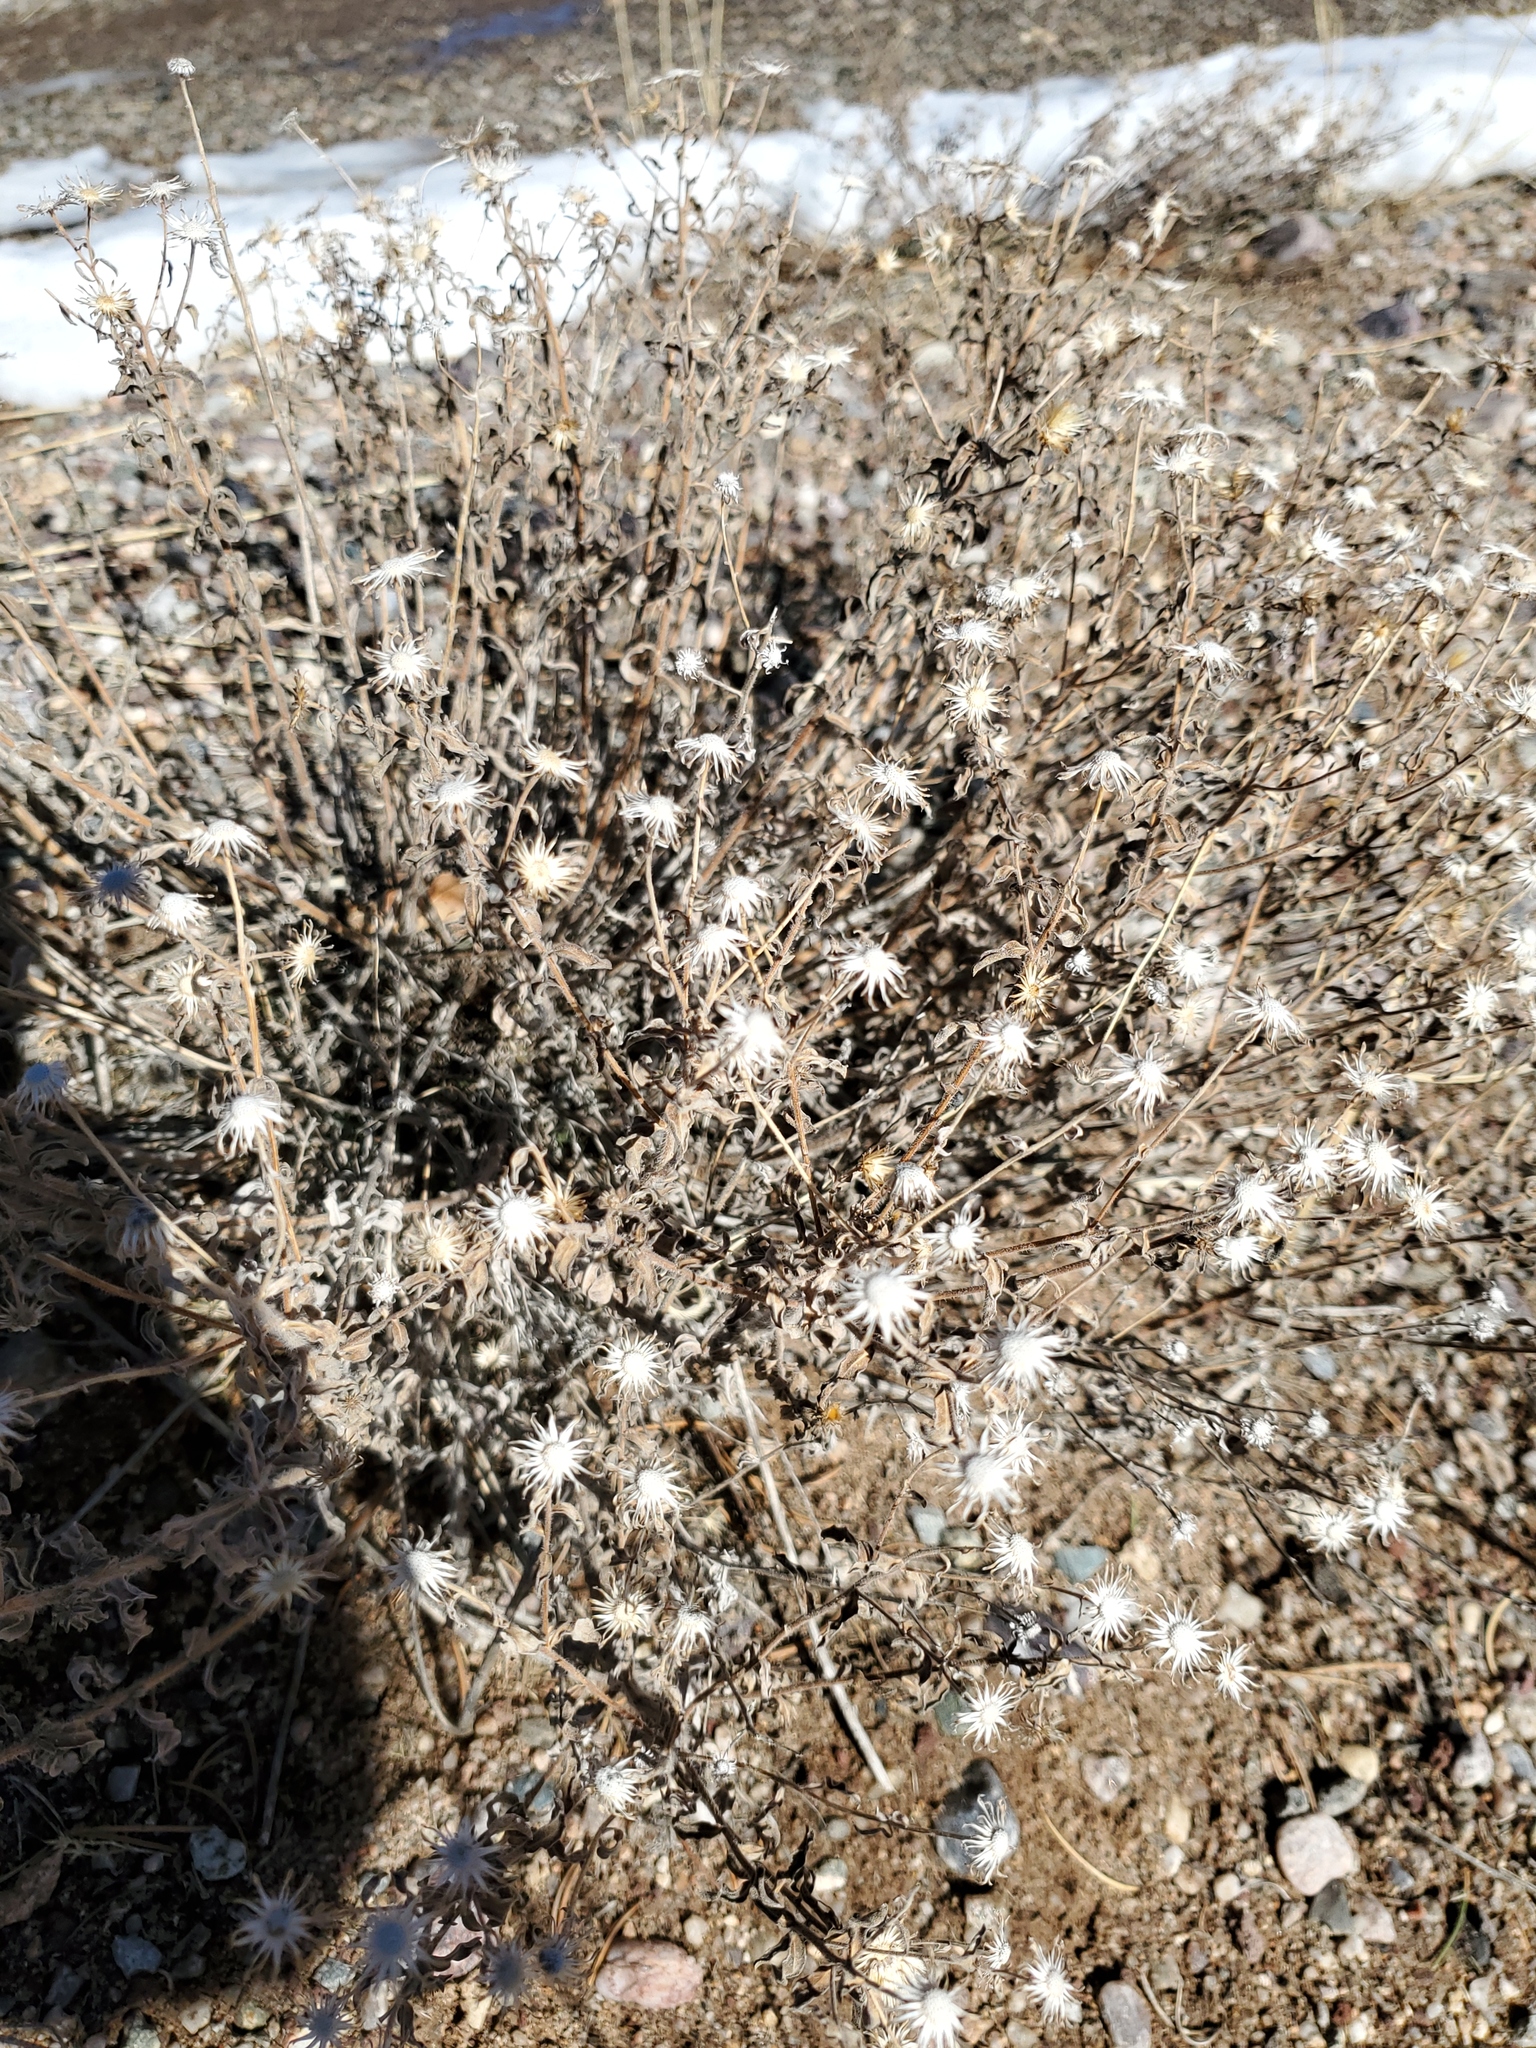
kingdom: Plantae
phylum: Tracheophyta
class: Magnoliopsida
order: Asterales
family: Asteraceae
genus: Heterotheca
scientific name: Heterotheca
